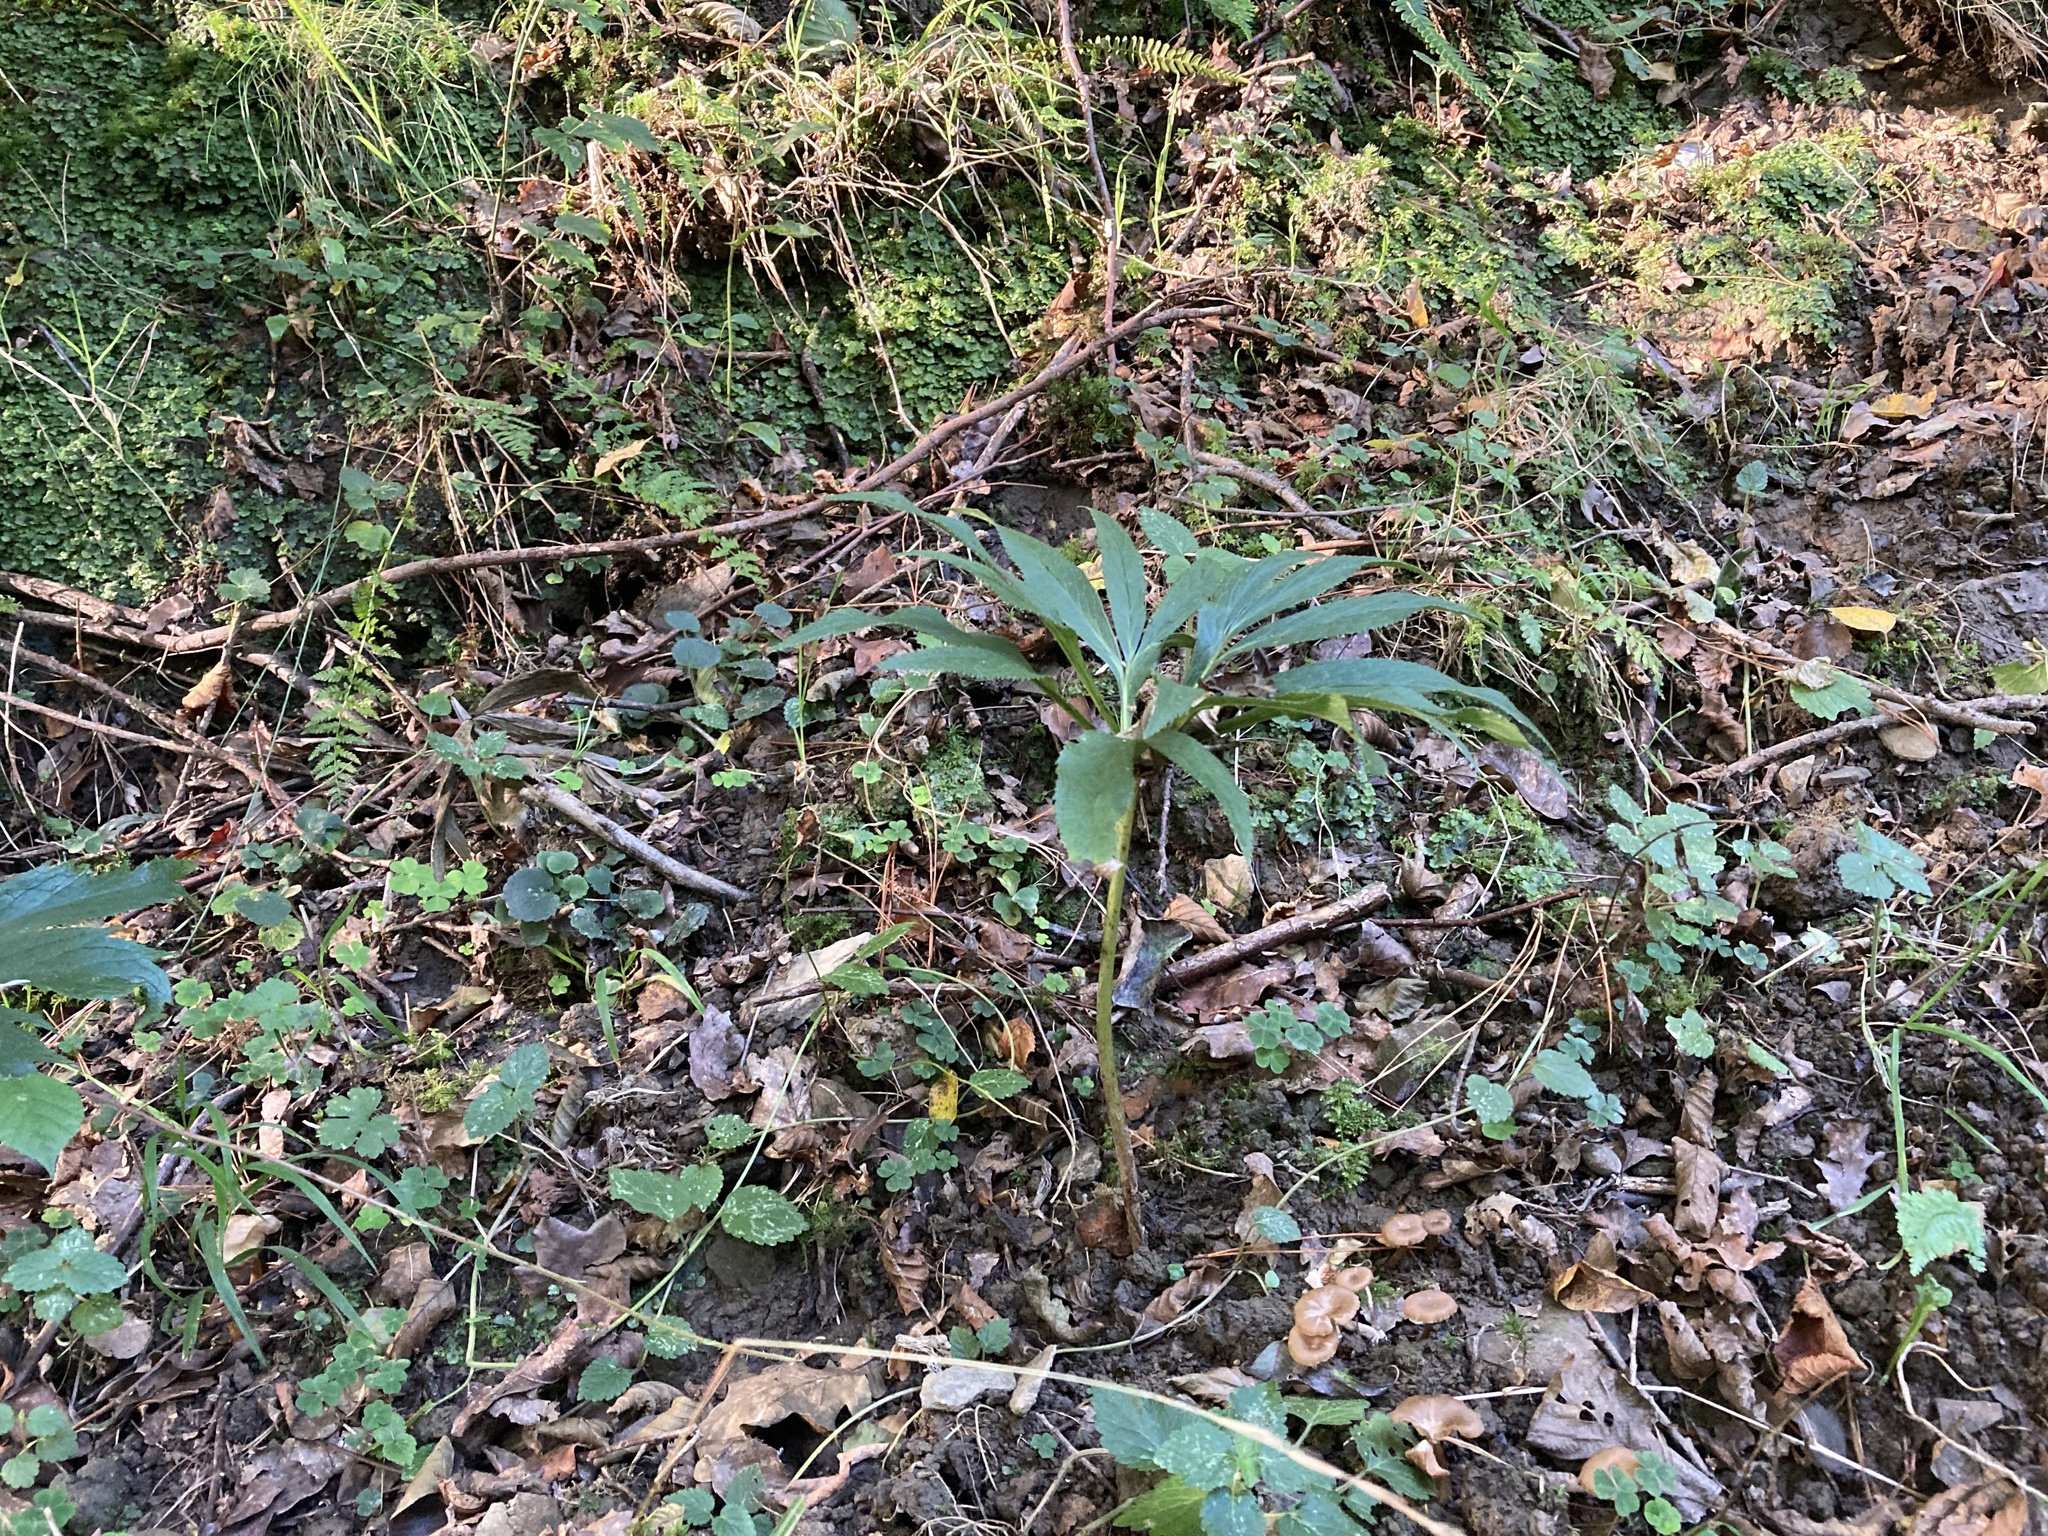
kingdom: Plantae
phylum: Tracheophyta
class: Magnoliopsida
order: Ranunculales
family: Ranunculaceae
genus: Helleborus
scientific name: Helleborus viridis
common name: Green hellebore
